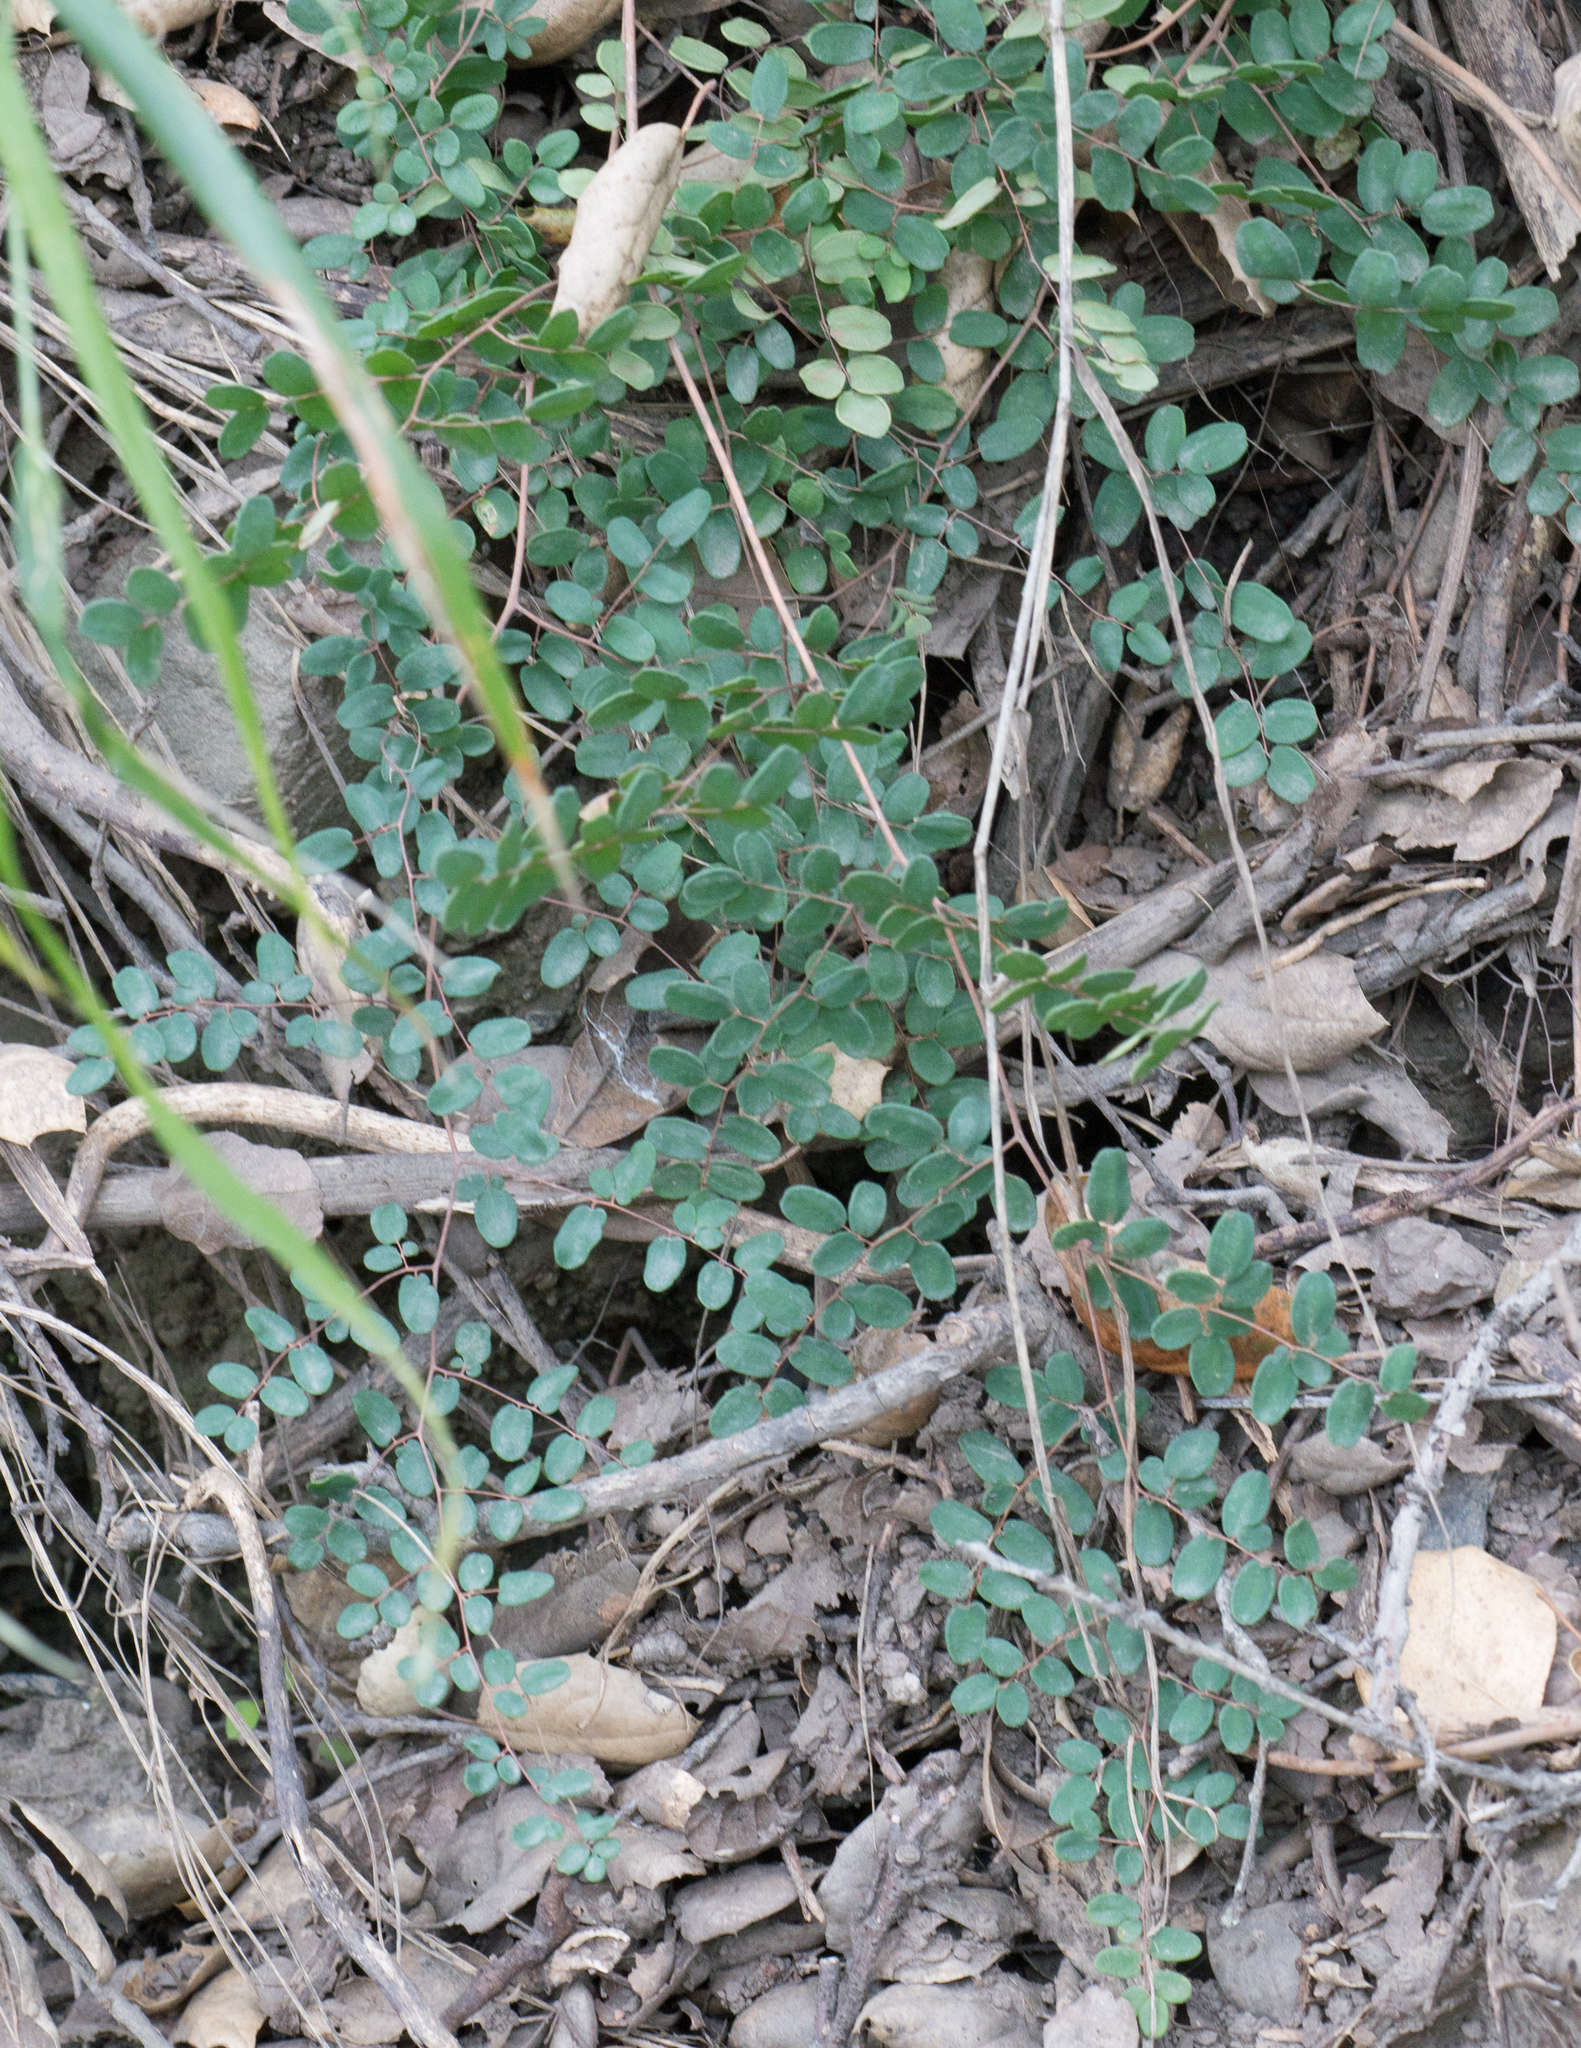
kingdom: Plantae
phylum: Tracheophyta
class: Polypodiopsida
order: Polypodiales
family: Pteridaceae
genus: Pellaea
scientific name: Pellaea andromedifolia
